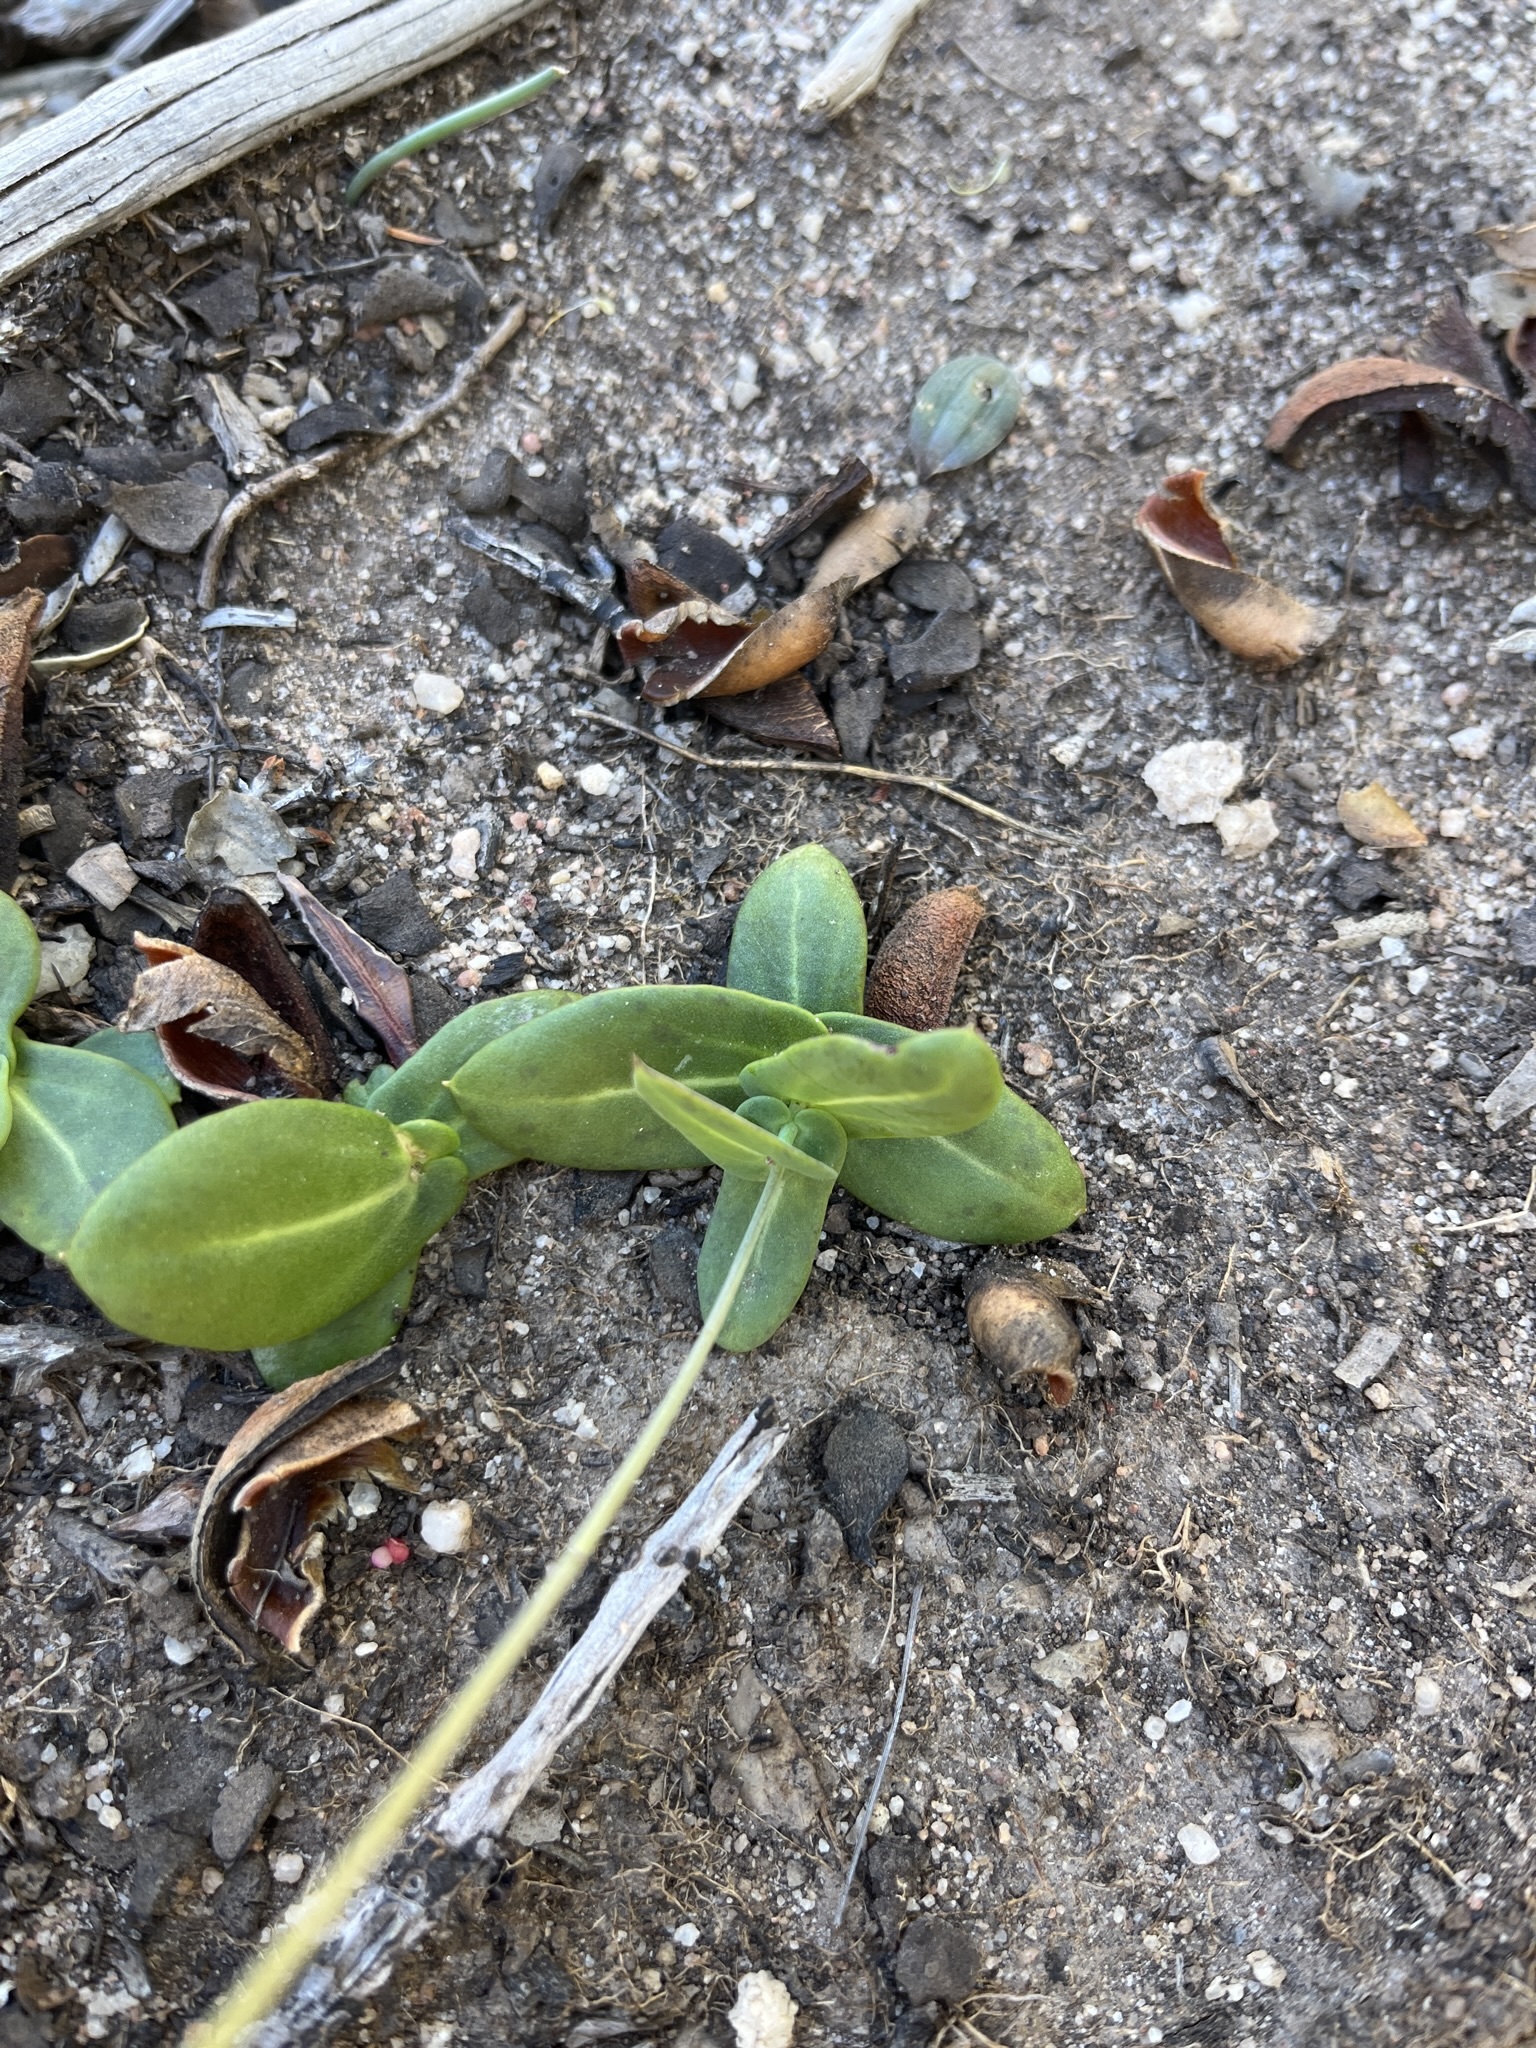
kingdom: Plantae
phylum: Tracheophyta
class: Magnoliopsida
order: Asterales
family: Asteraceae
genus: Othonna
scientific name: Othonna perfoliata
